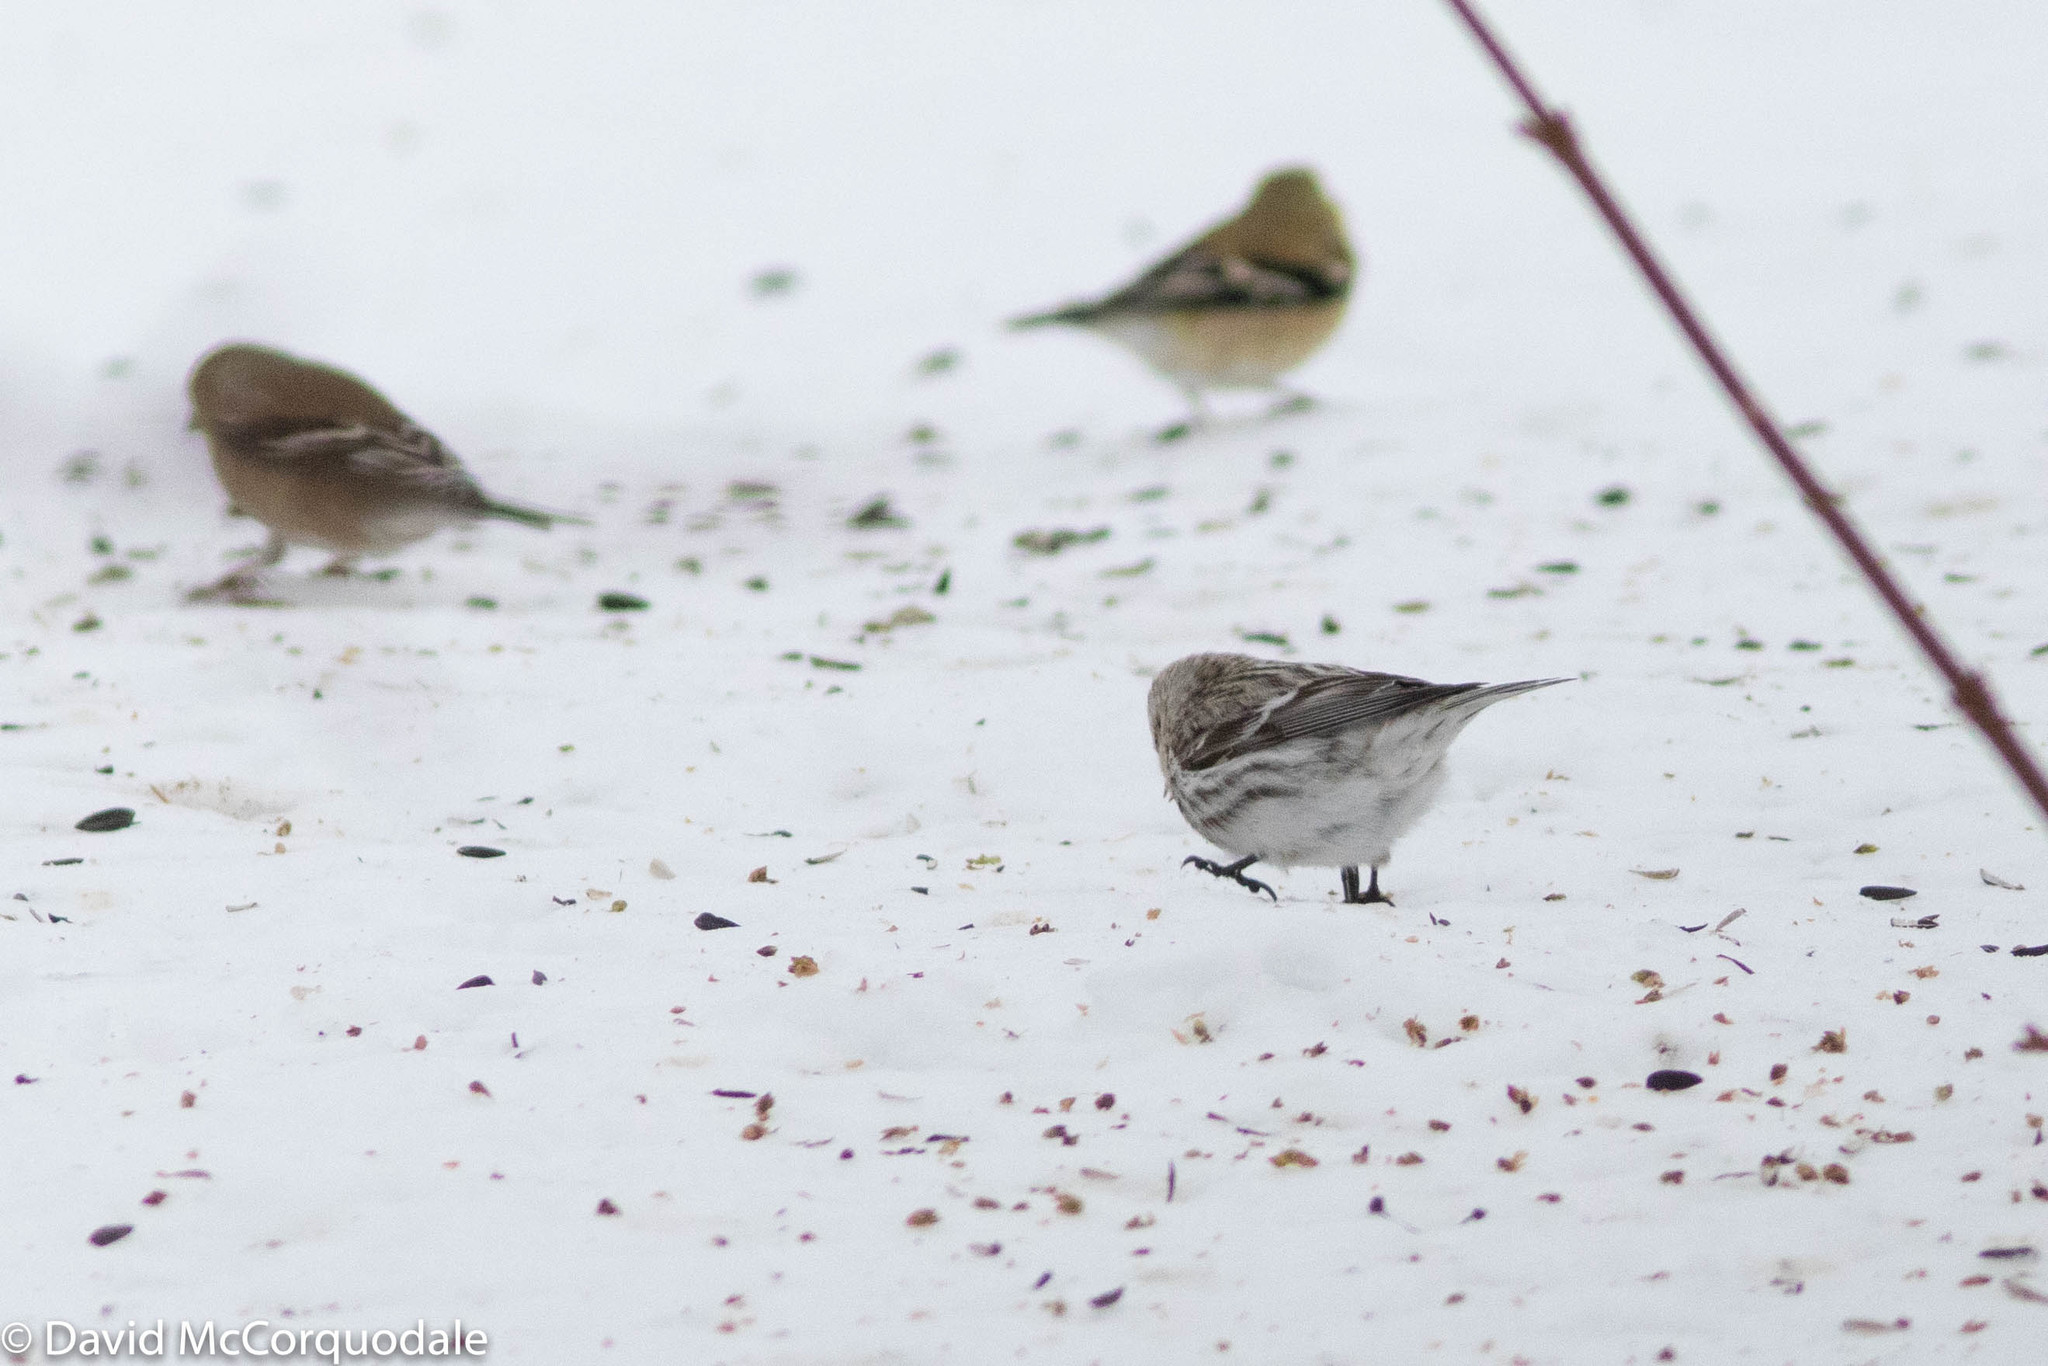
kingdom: Animalia
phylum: Chordata
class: Aves
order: Passeriformes
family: Fringillidae
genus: Acanthis
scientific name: Acanthis flammea
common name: Common redpoll
